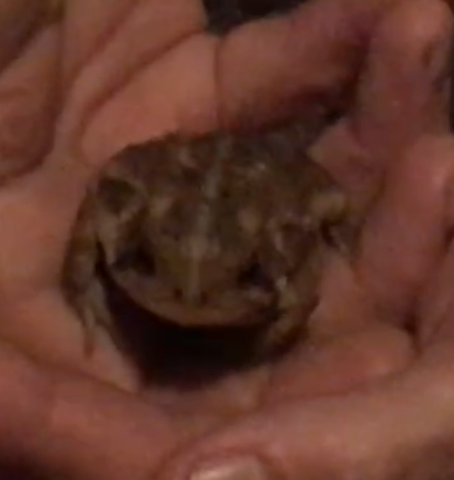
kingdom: Animalia
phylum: Chordata
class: Amphibia
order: Anura
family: Bufonidae
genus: Anaxyrus
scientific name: Anaxyrus
